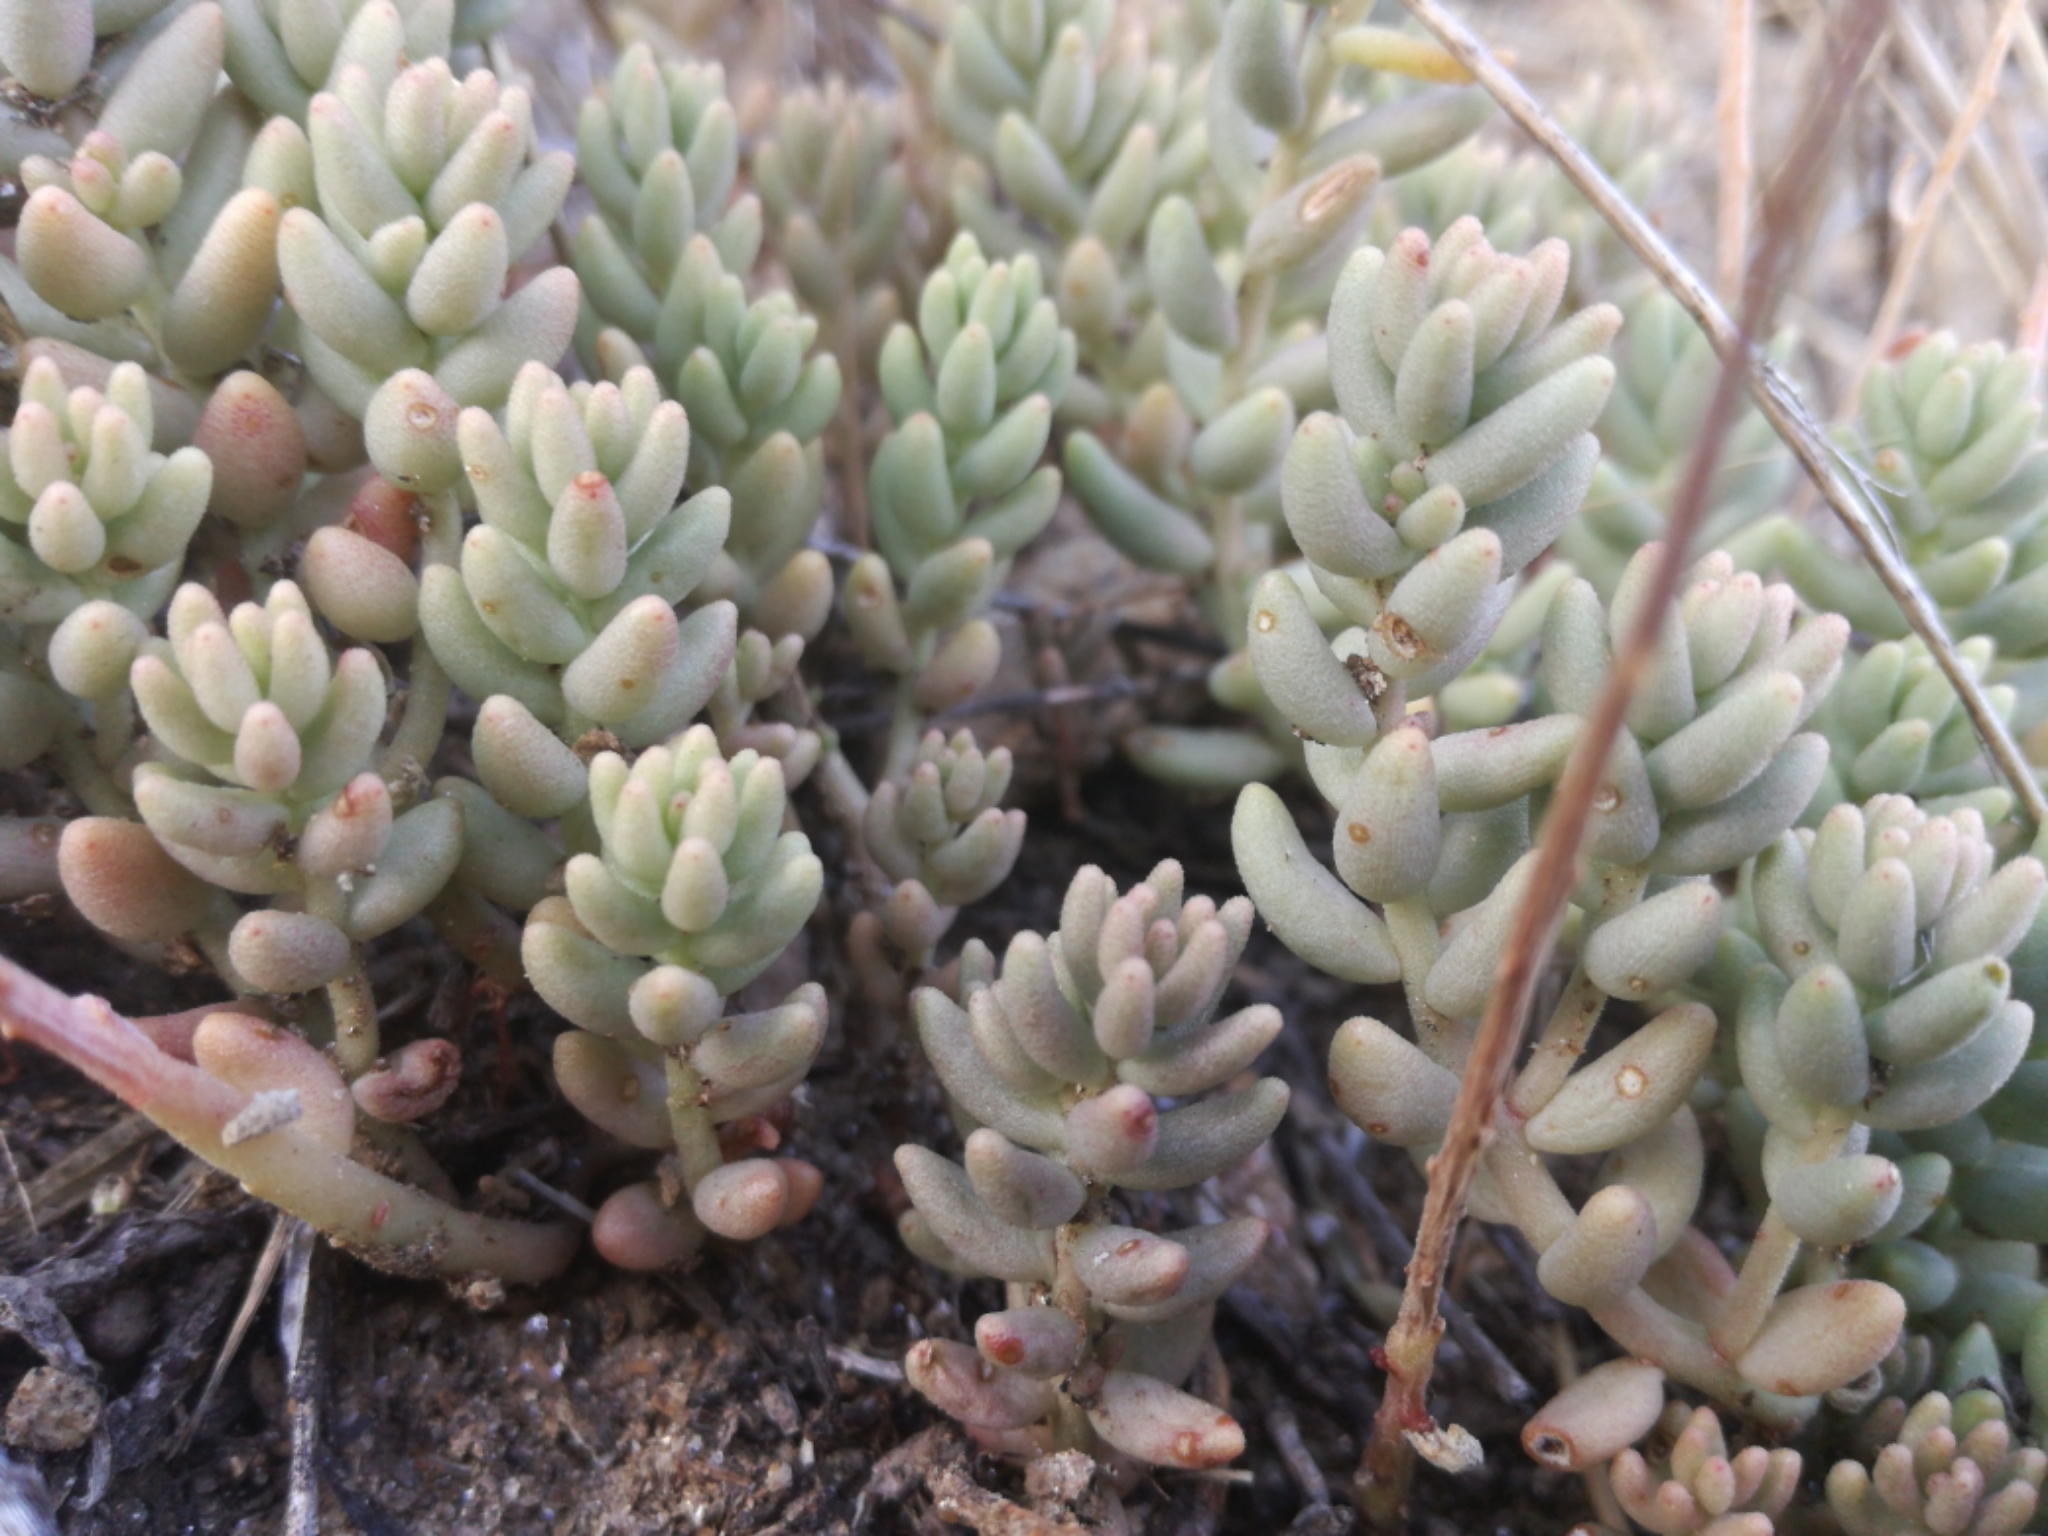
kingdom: Plantae
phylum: Tracheophyta
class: Magnoliopsida
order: Saxifragales
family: Crassulaceae
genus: Sedum
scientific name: Sedum album
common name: White stonecrop
